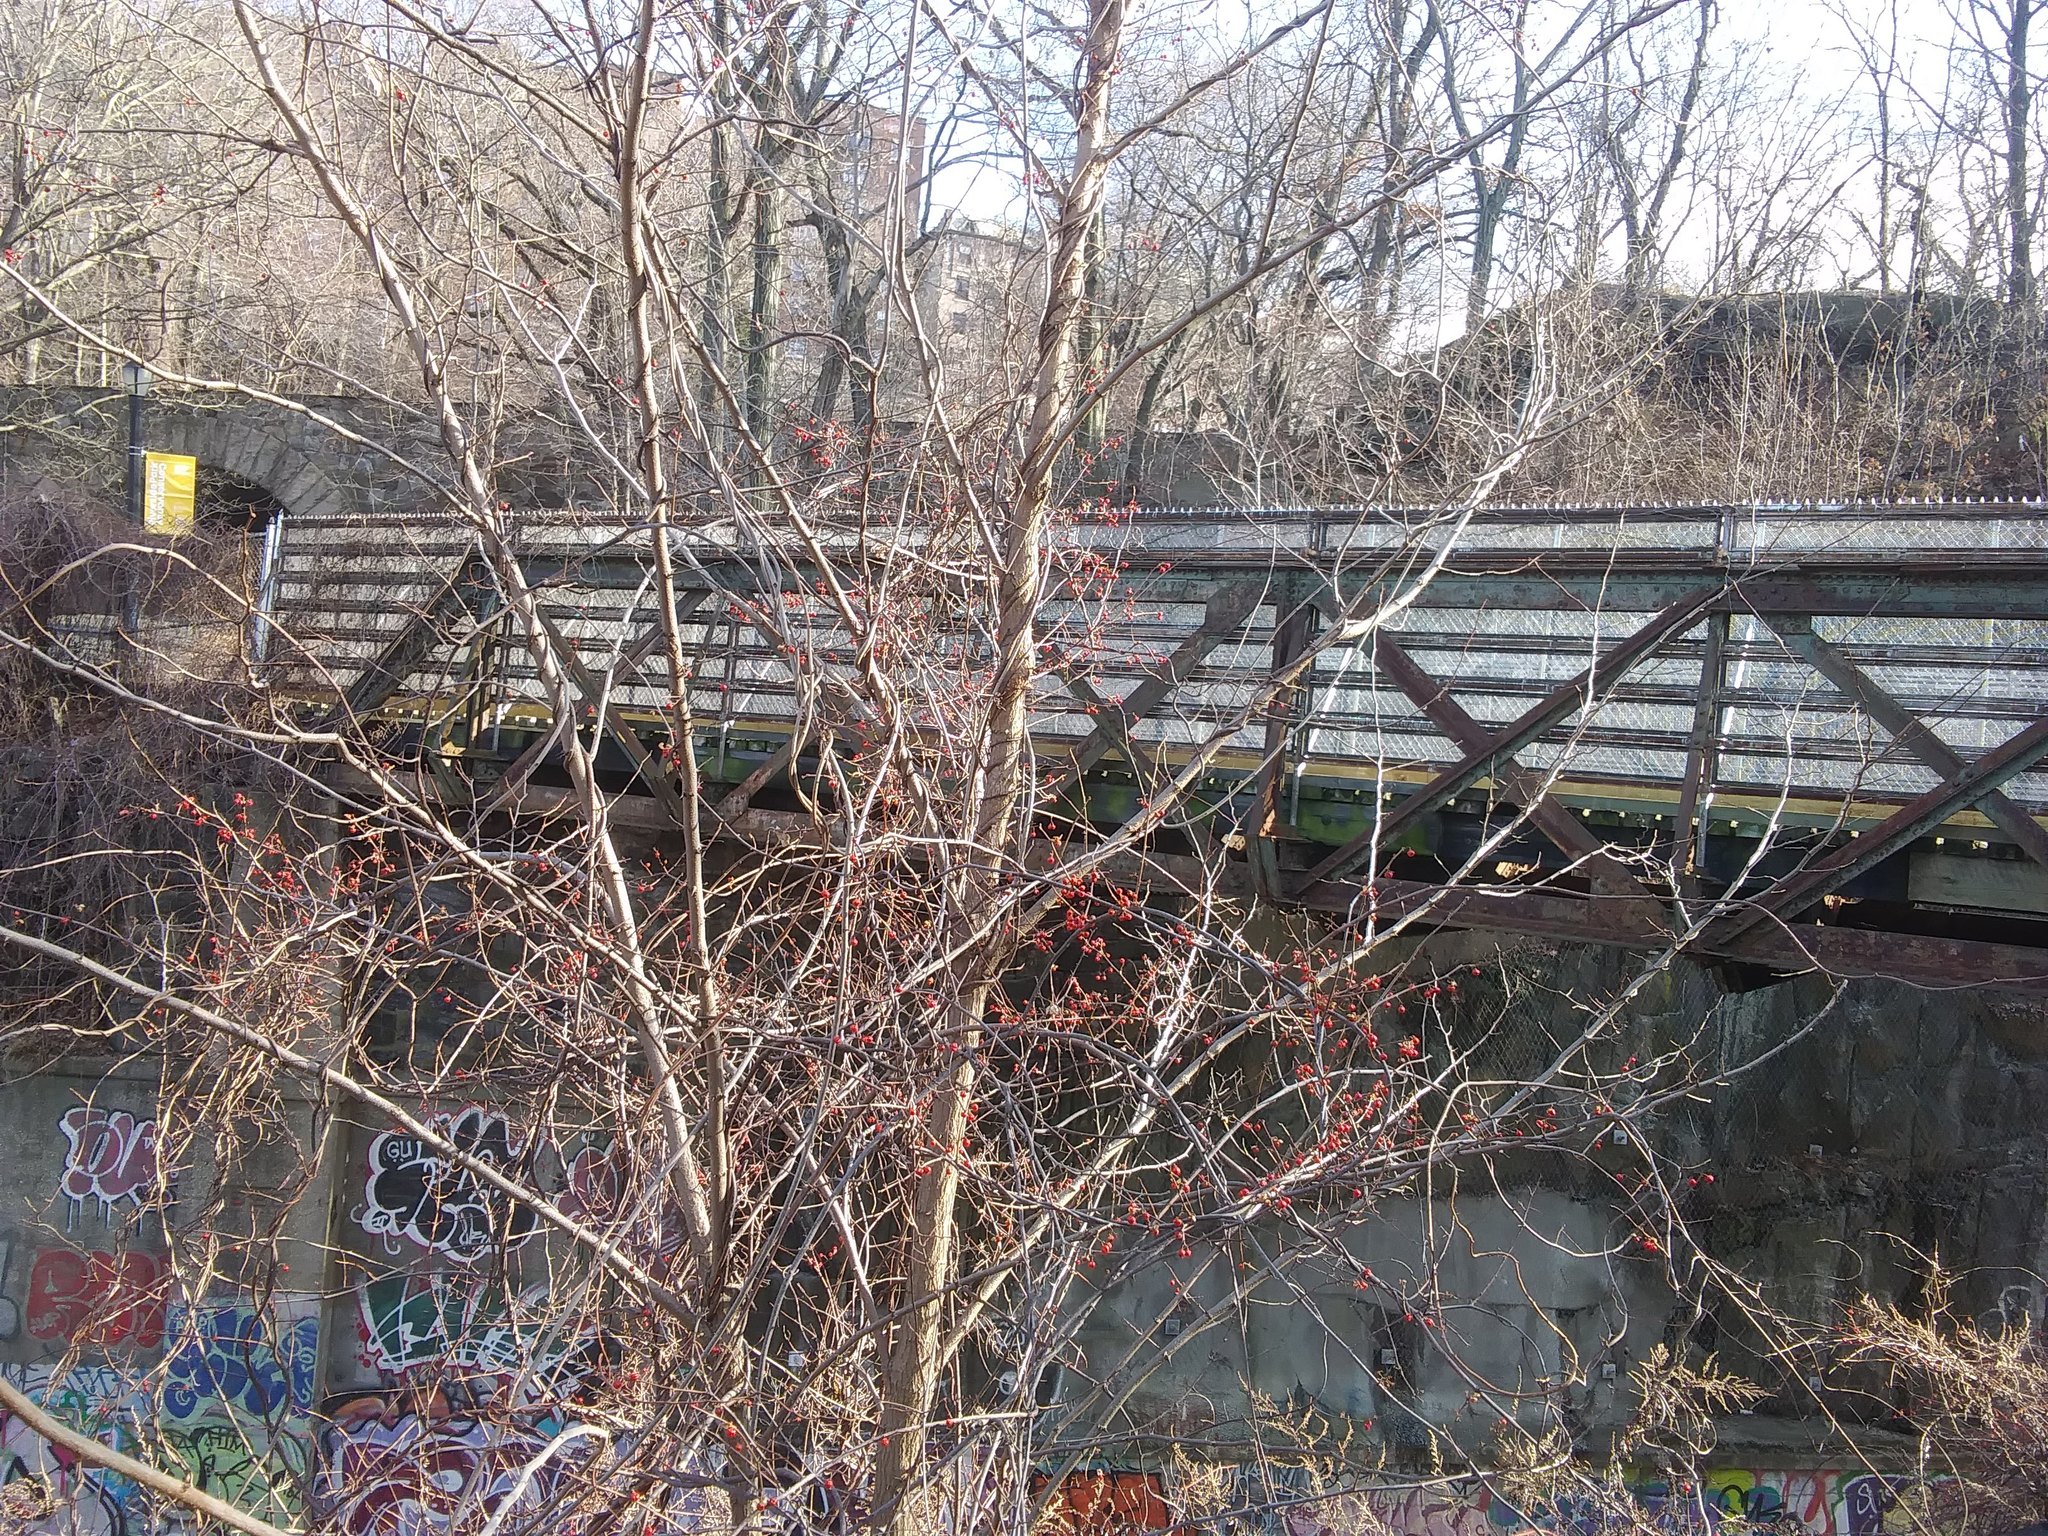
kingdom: Plantae
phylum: Tracheophyta
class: Magnoliopsida
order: Celastrales
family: Celastraceae
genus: Celastrus
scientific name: Celastrus orbiculatus
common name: Oriental bittersweet
